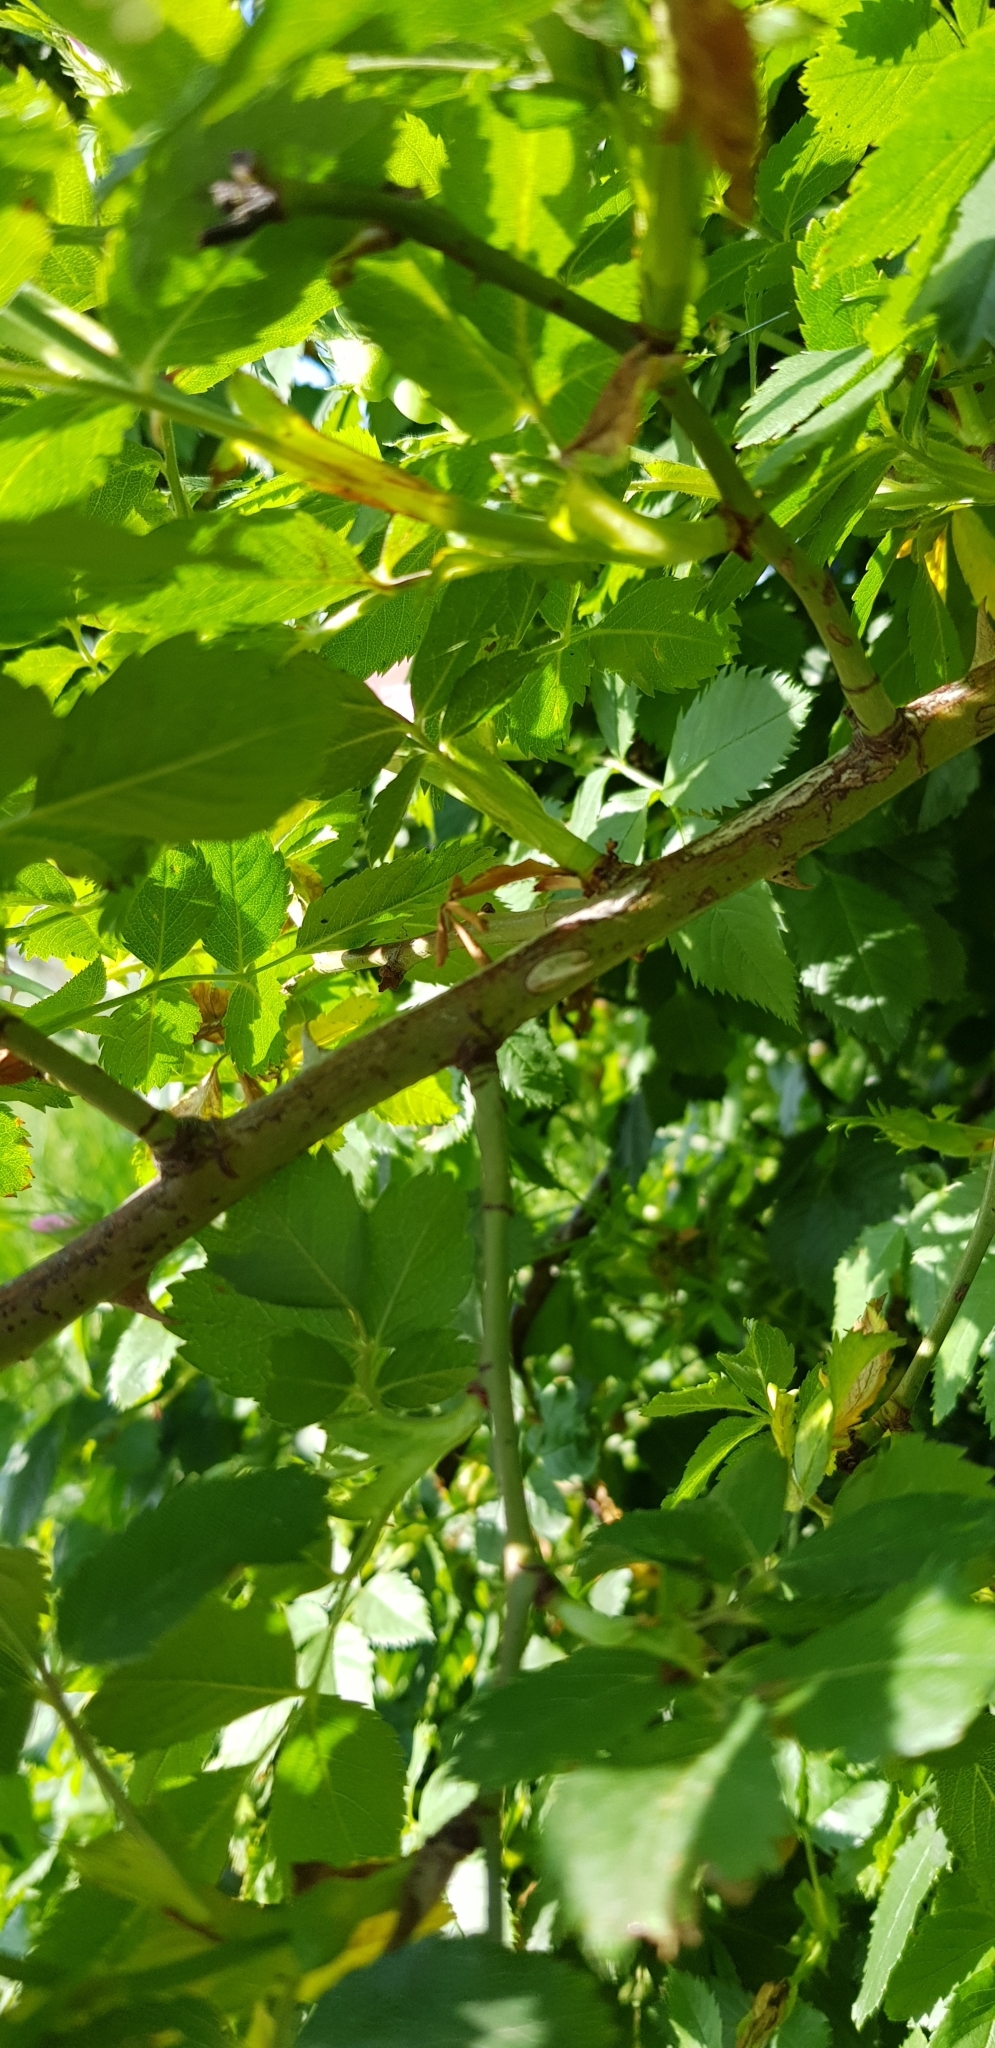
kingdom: Plantae
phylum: Tracheophyta
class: Magnoliopsida
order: Rosales
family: Rosaceae
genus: Rosa
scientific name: Rosa canina
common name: Dog rose
